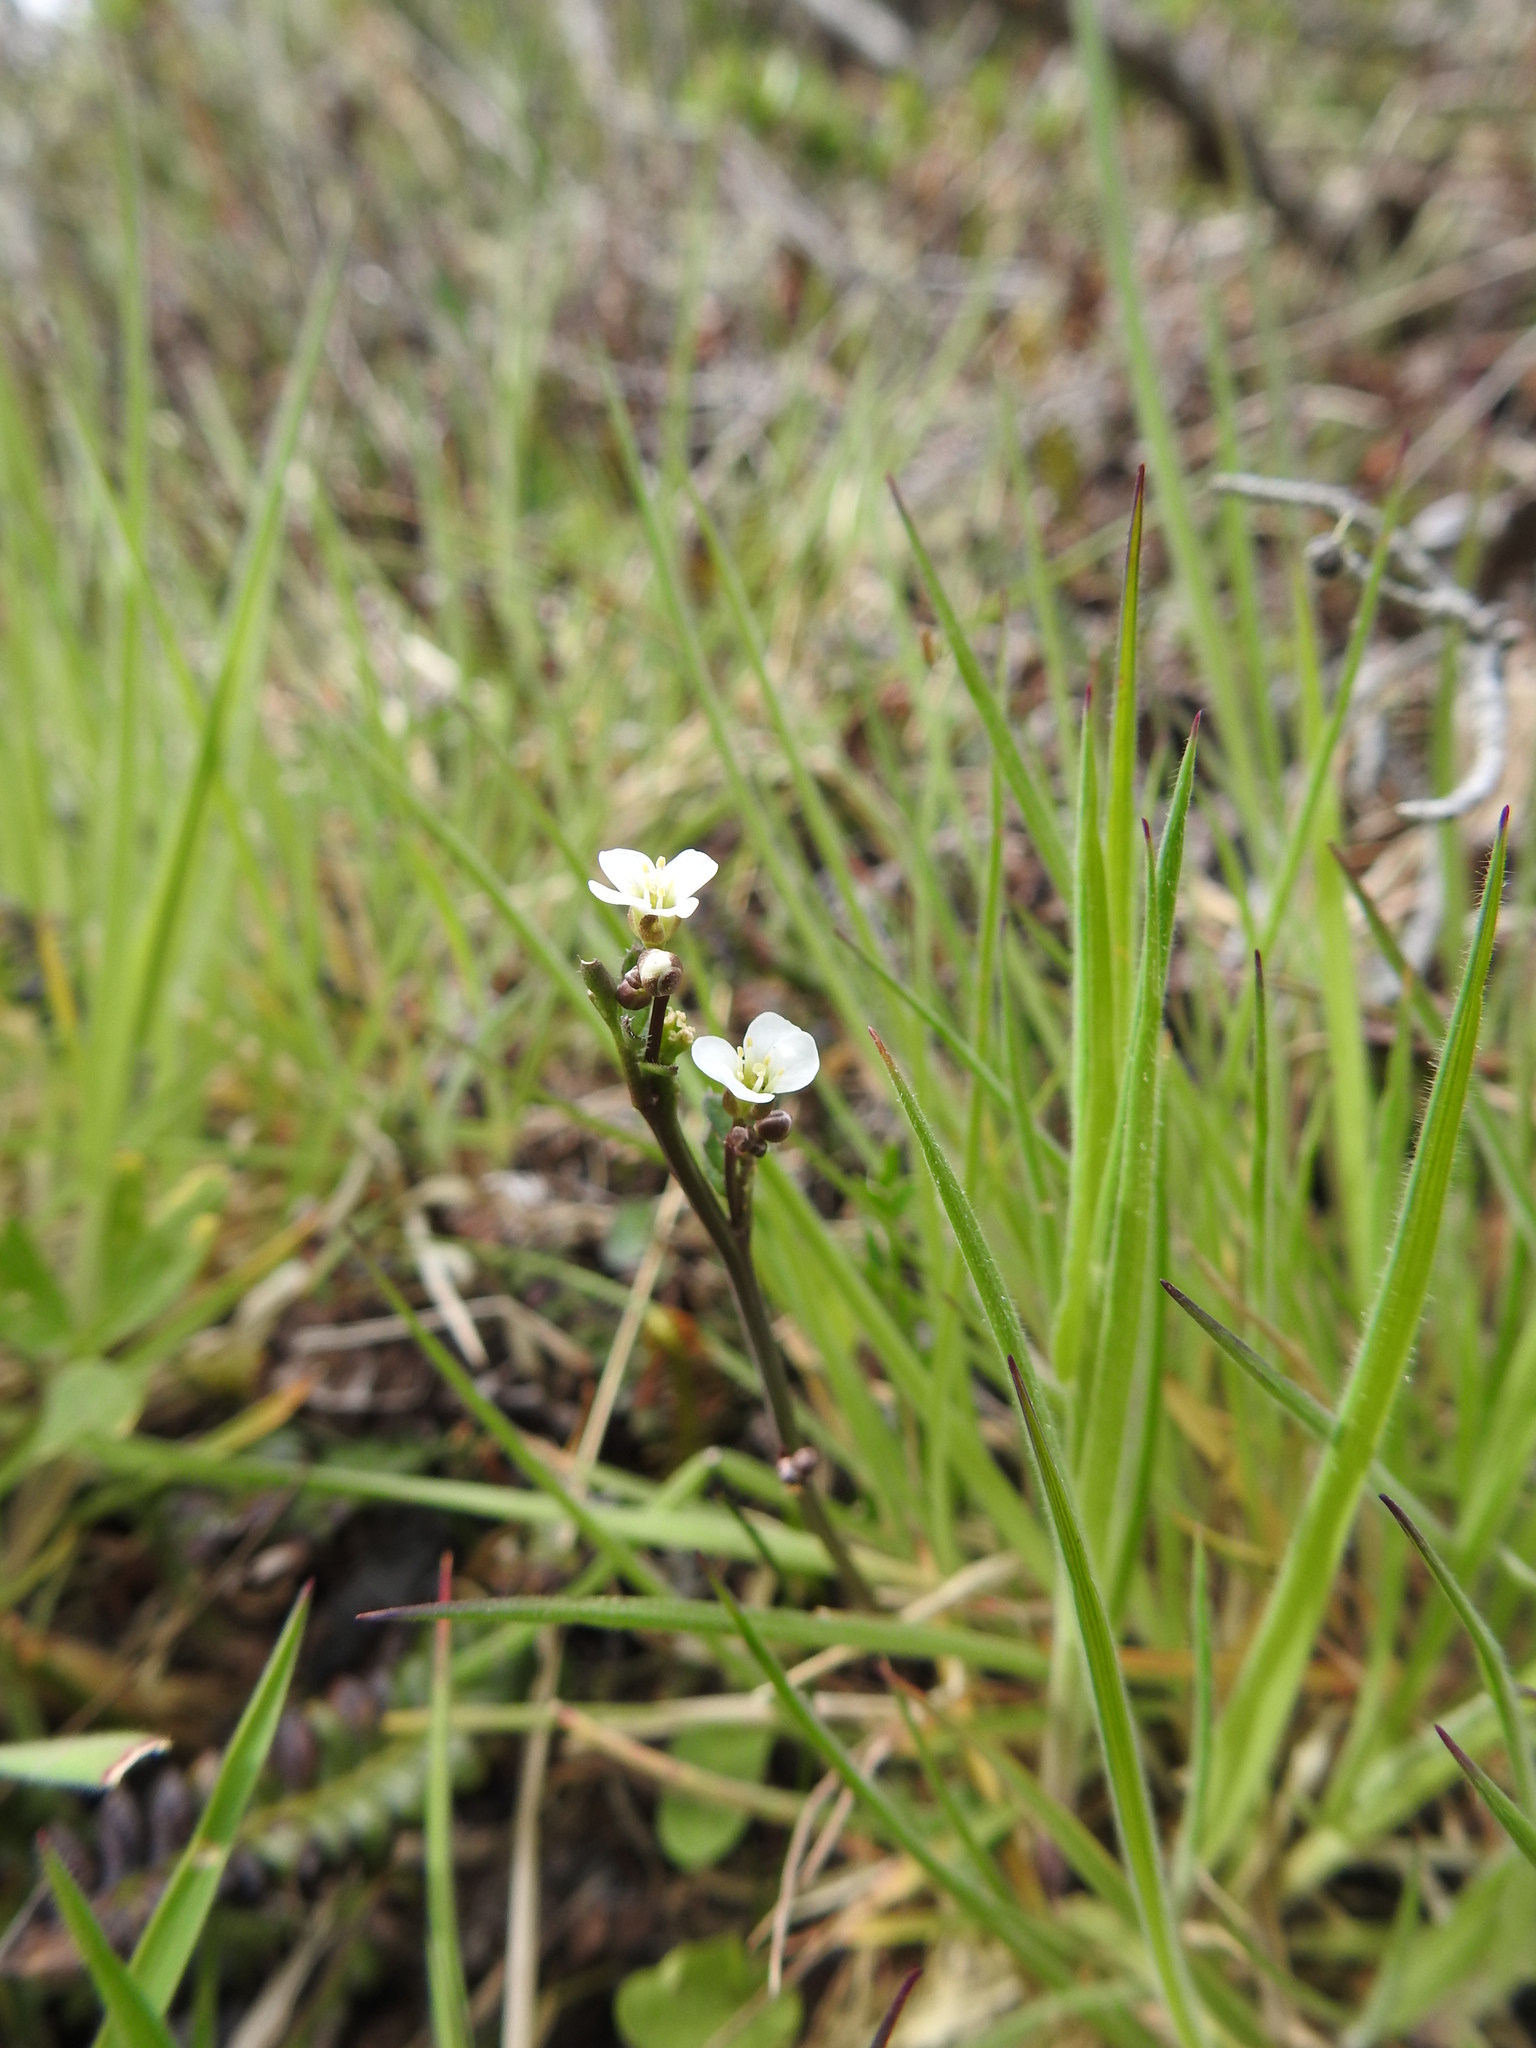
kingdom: Plantae
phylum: Tracheophyta
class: Magnoliopsida
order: Brassicales
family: Brassicaceae
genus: Cardamine
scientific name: Cardamine glacialis
